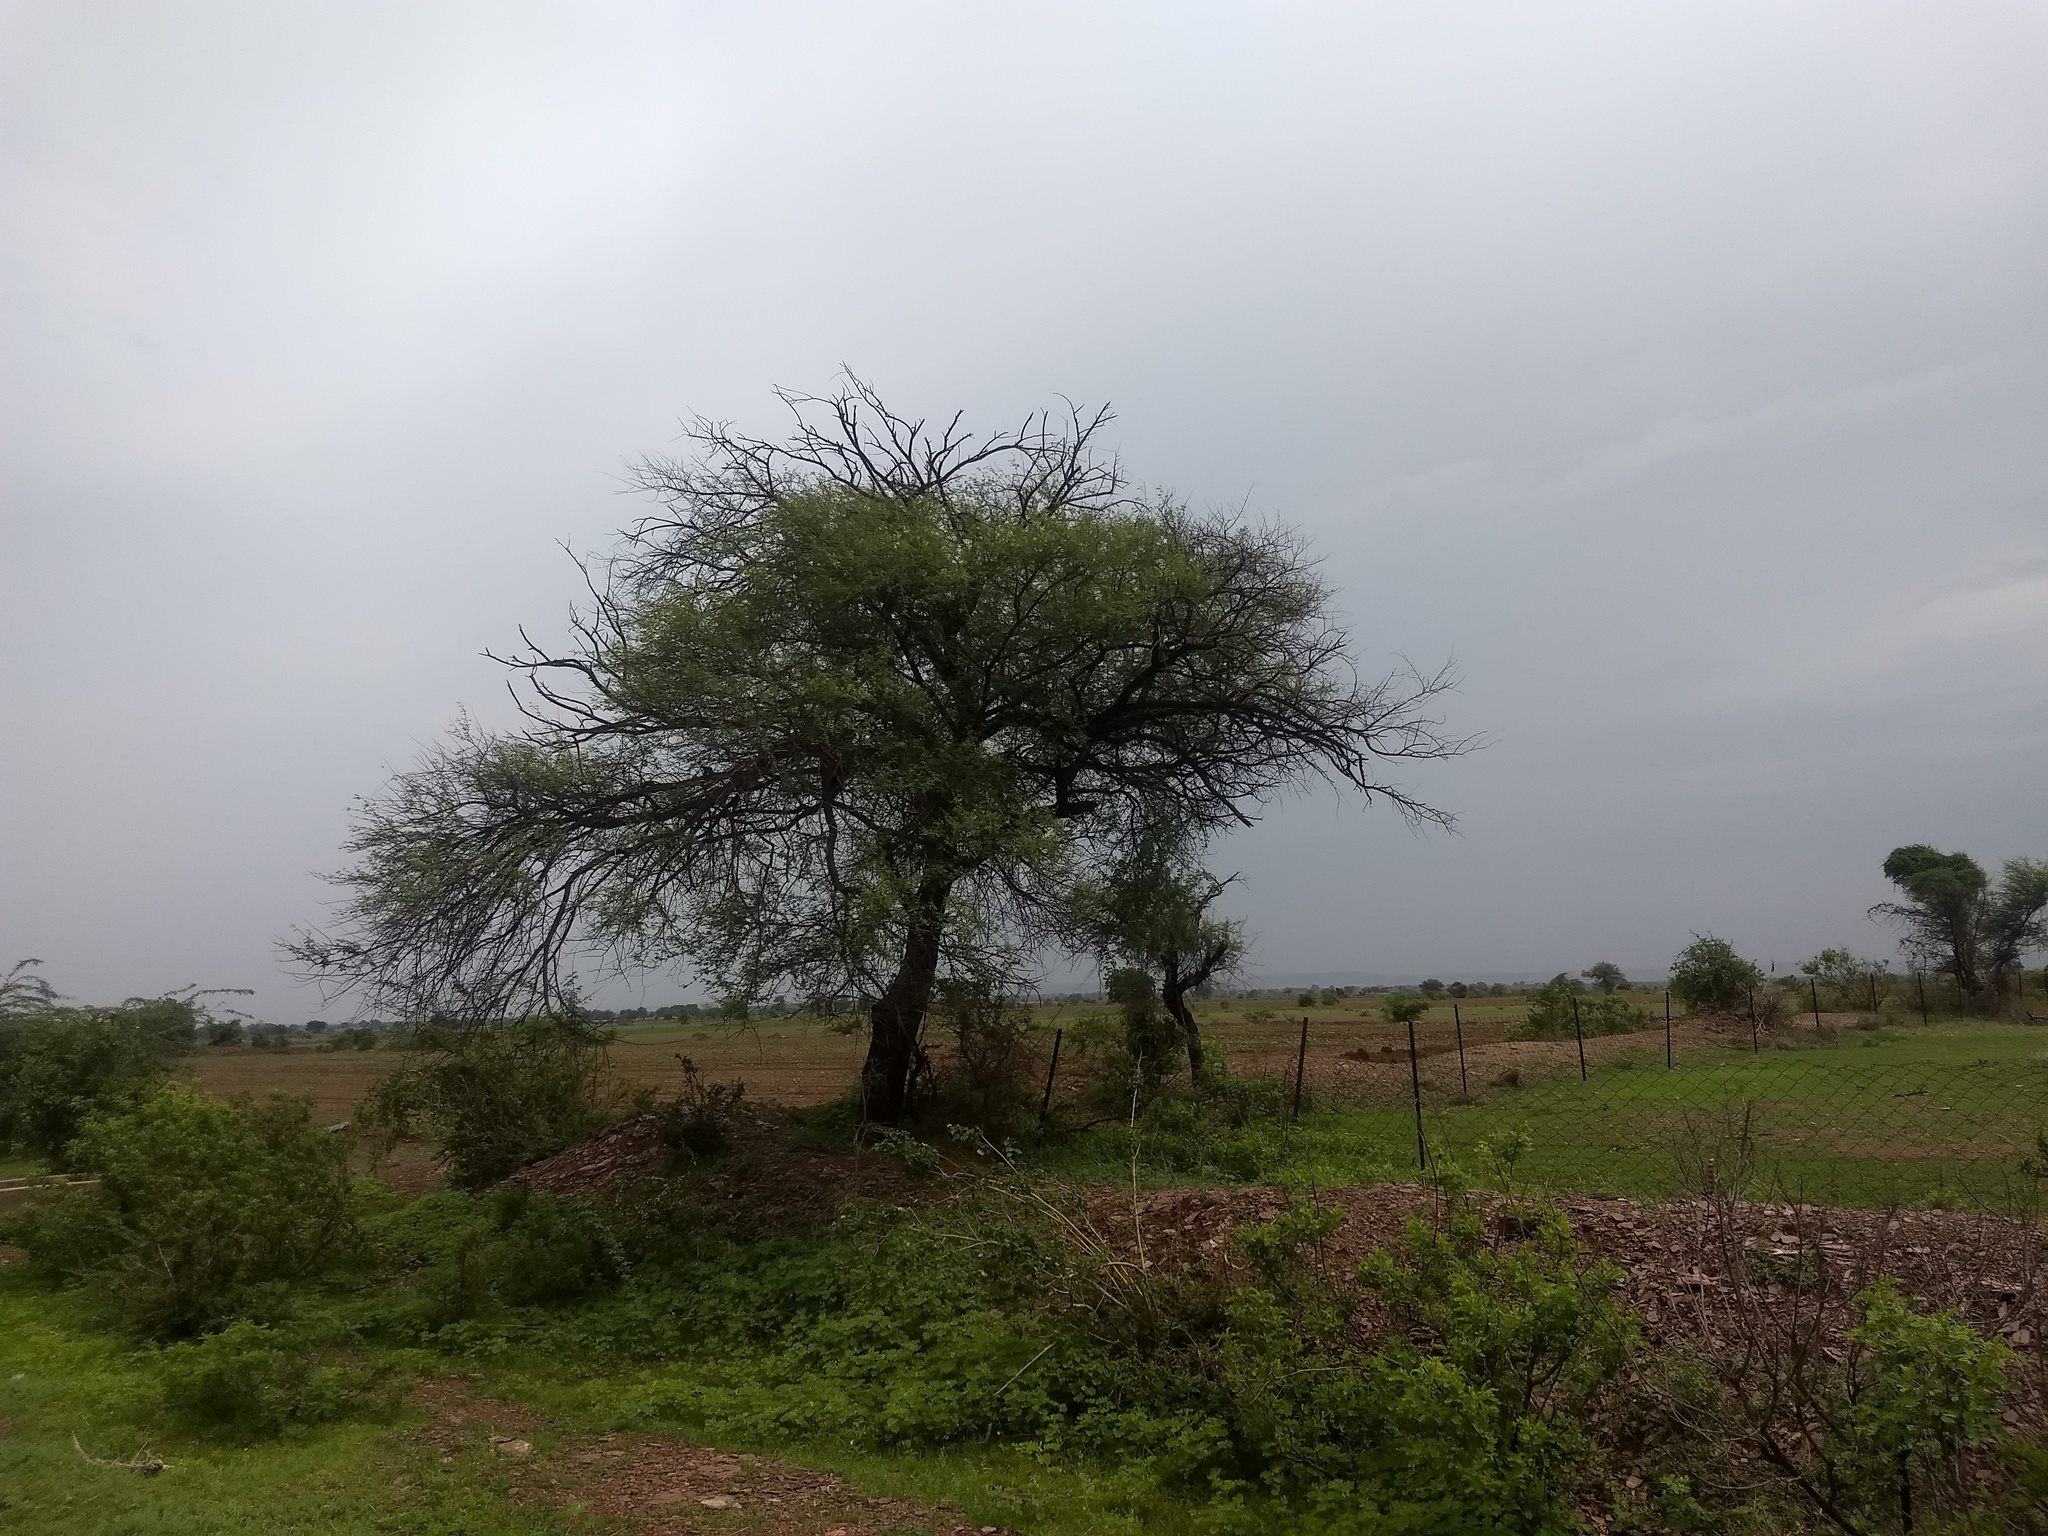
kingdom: Plantae
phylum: Tracheophyta
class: Magnoliopsida
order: Fabales
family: Fabaceae
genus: Vachellia
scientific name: Vachellia nilotica
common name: Arabic gumtree
